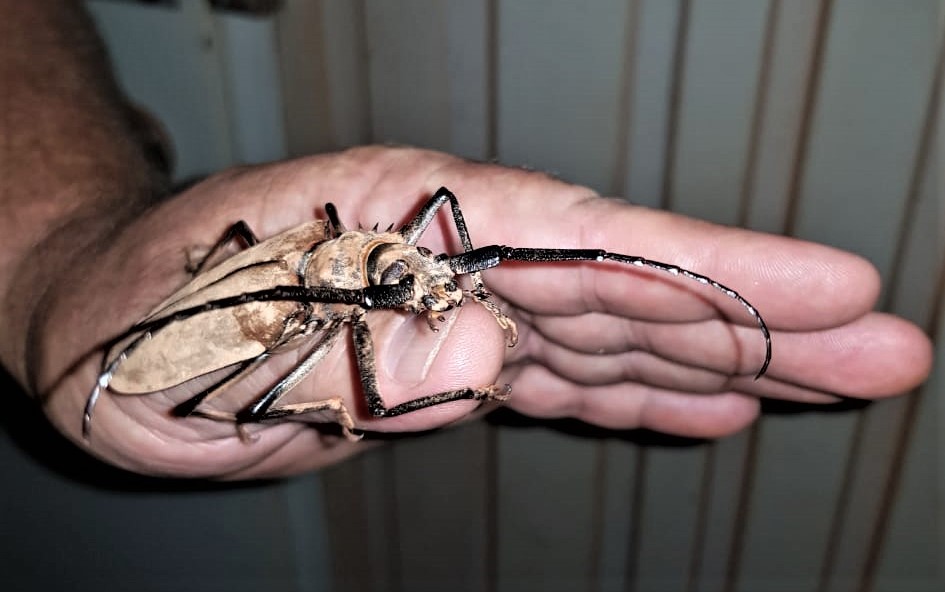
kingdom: Animalia
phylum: Arthropoda
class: Insecta
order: Coleoptera
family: Cerambycidae
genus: Enoplocerus
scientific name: Enoplocerus armillatus
